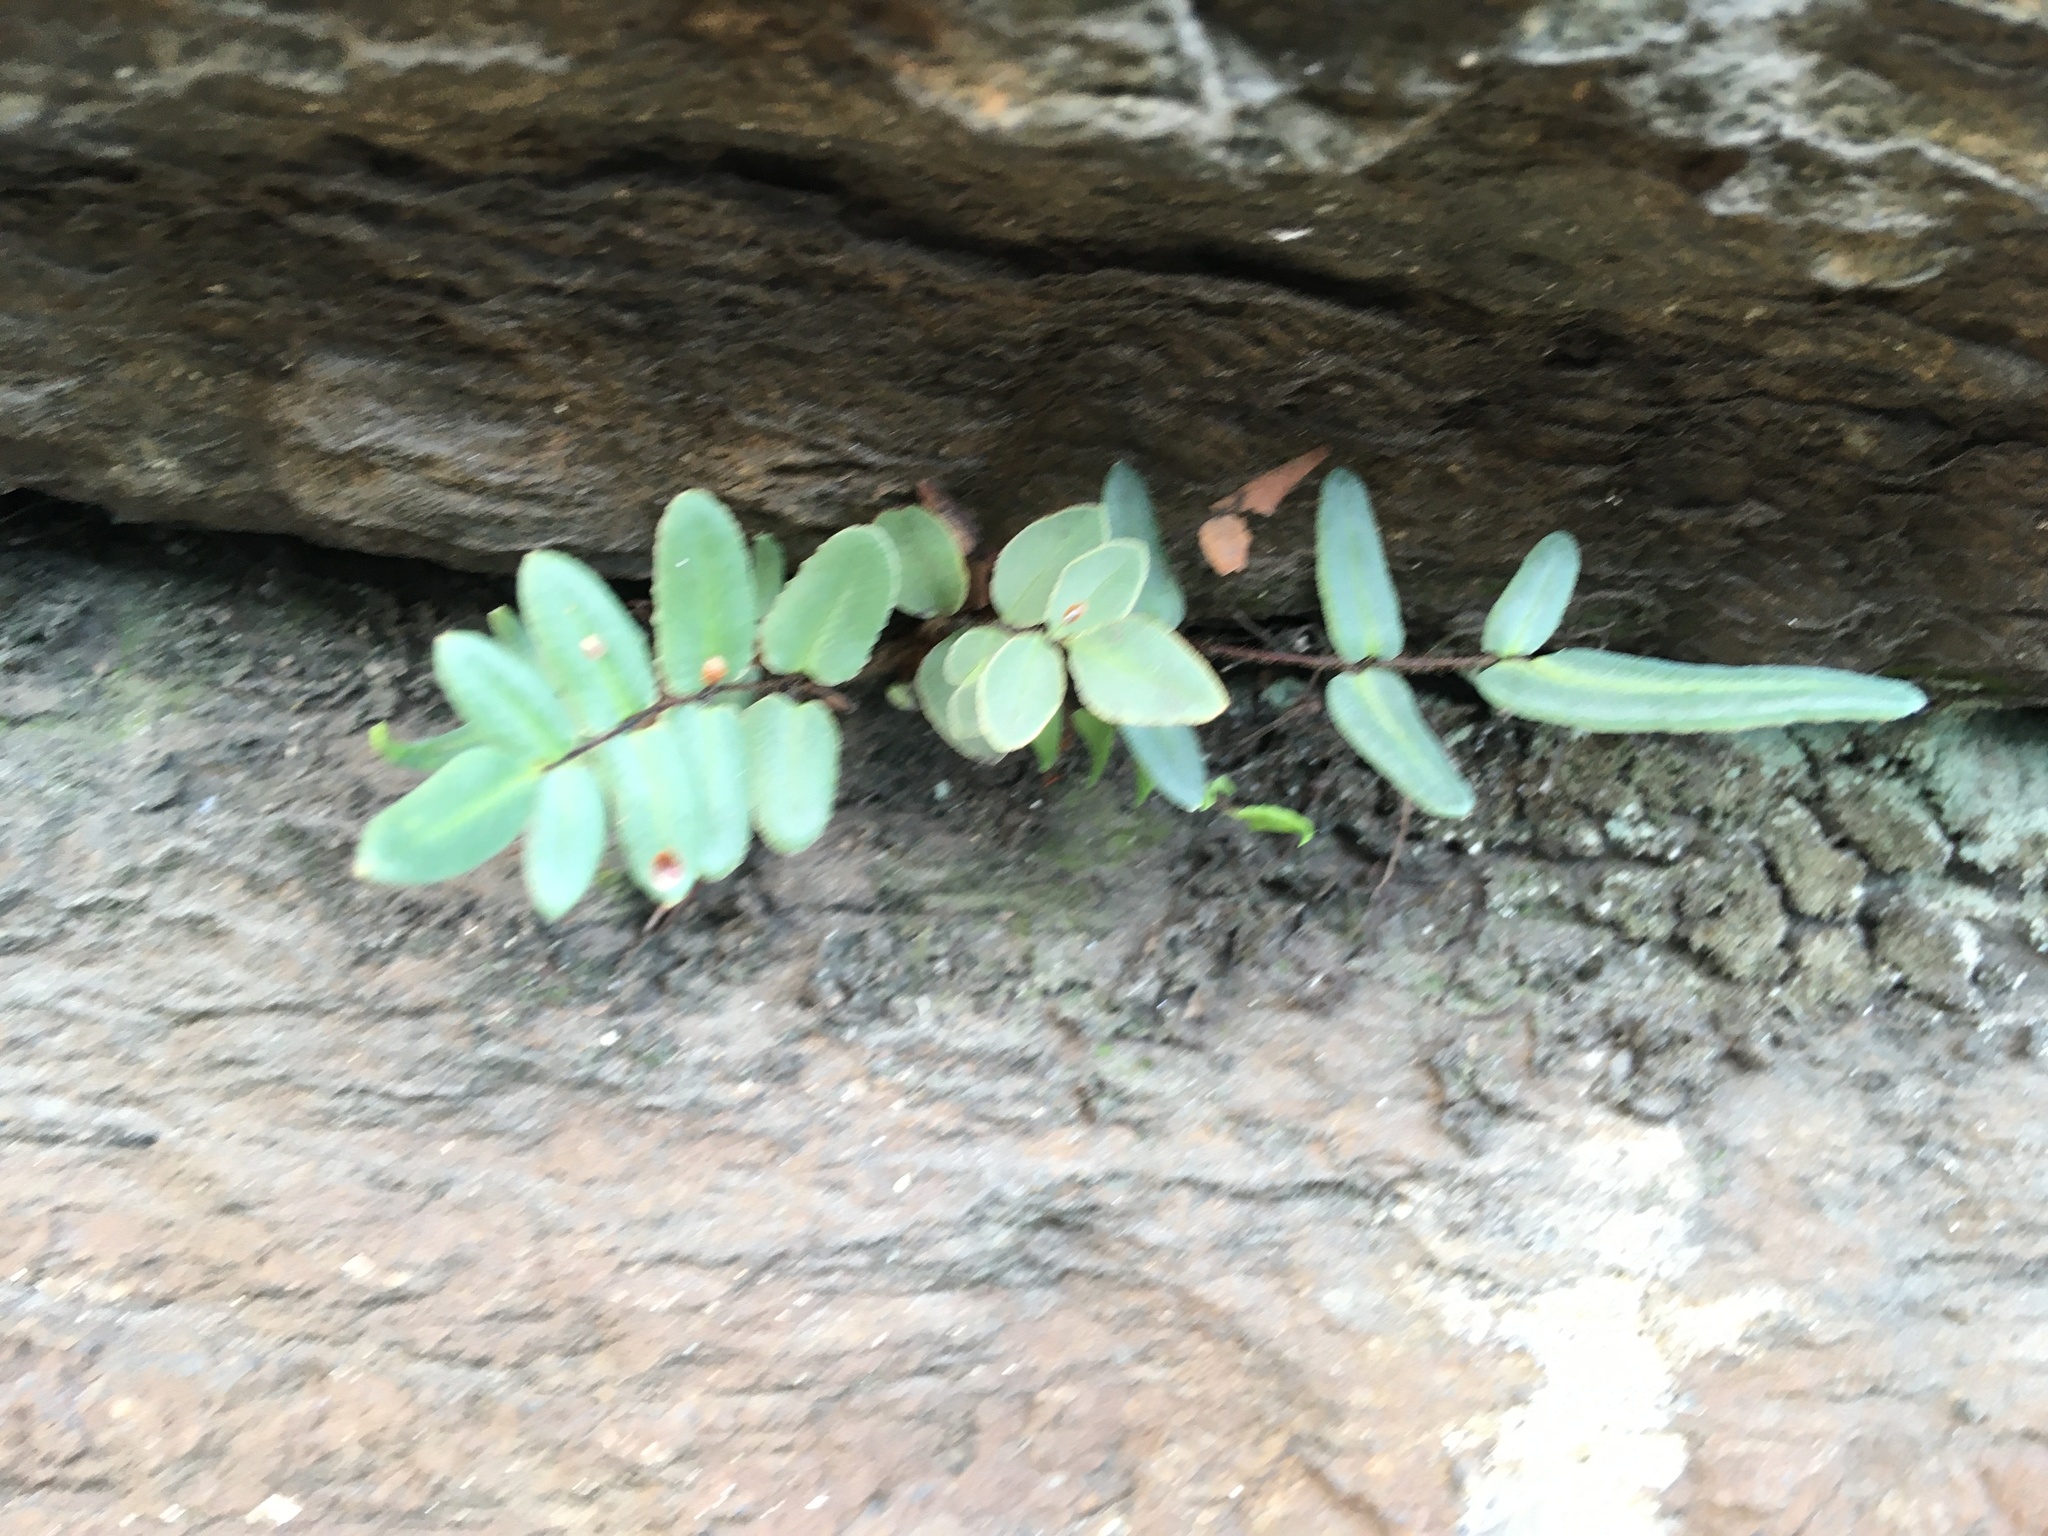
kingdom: Plantae
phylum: Tracheophyta
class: Polypodiopsida
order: Polypodiales
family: Pteridaceae
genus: Pellaea
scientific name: Pellaea atropurpurea
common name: Hairy cliffbrake
